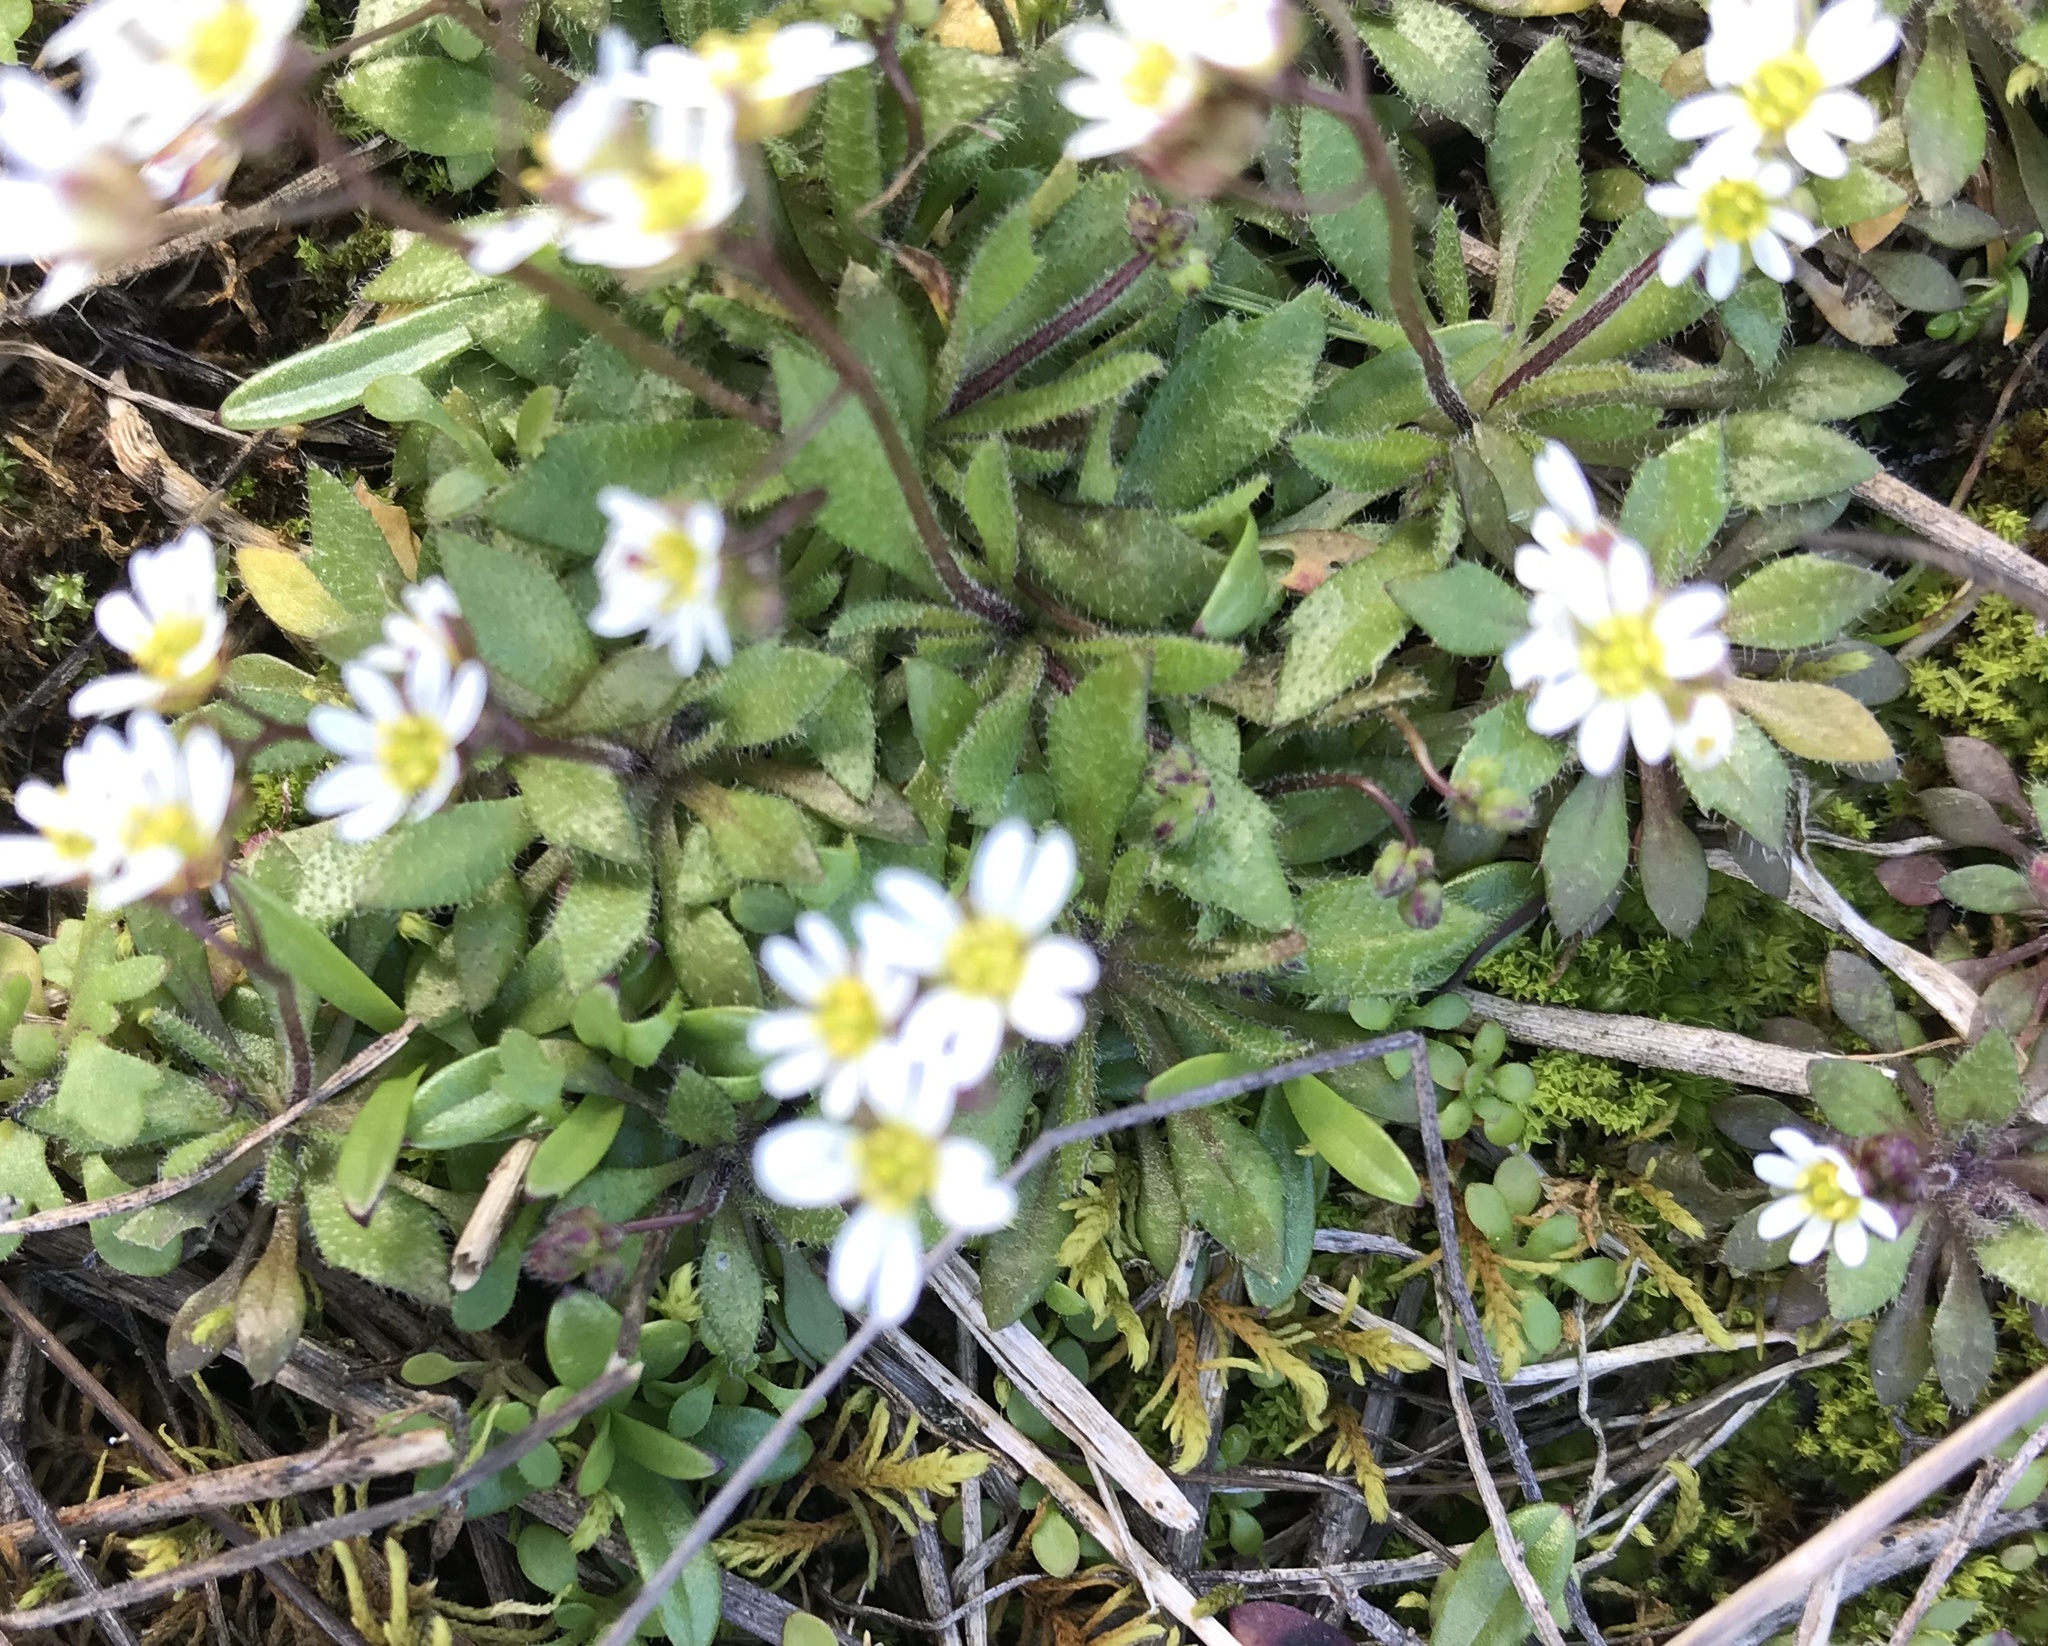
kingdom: Plantae
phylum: Tracheophyta
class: Magnoliopsida
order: Brassicales
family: Brassicaceae
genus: Draba
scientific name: Draba verna
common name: Spring draba
